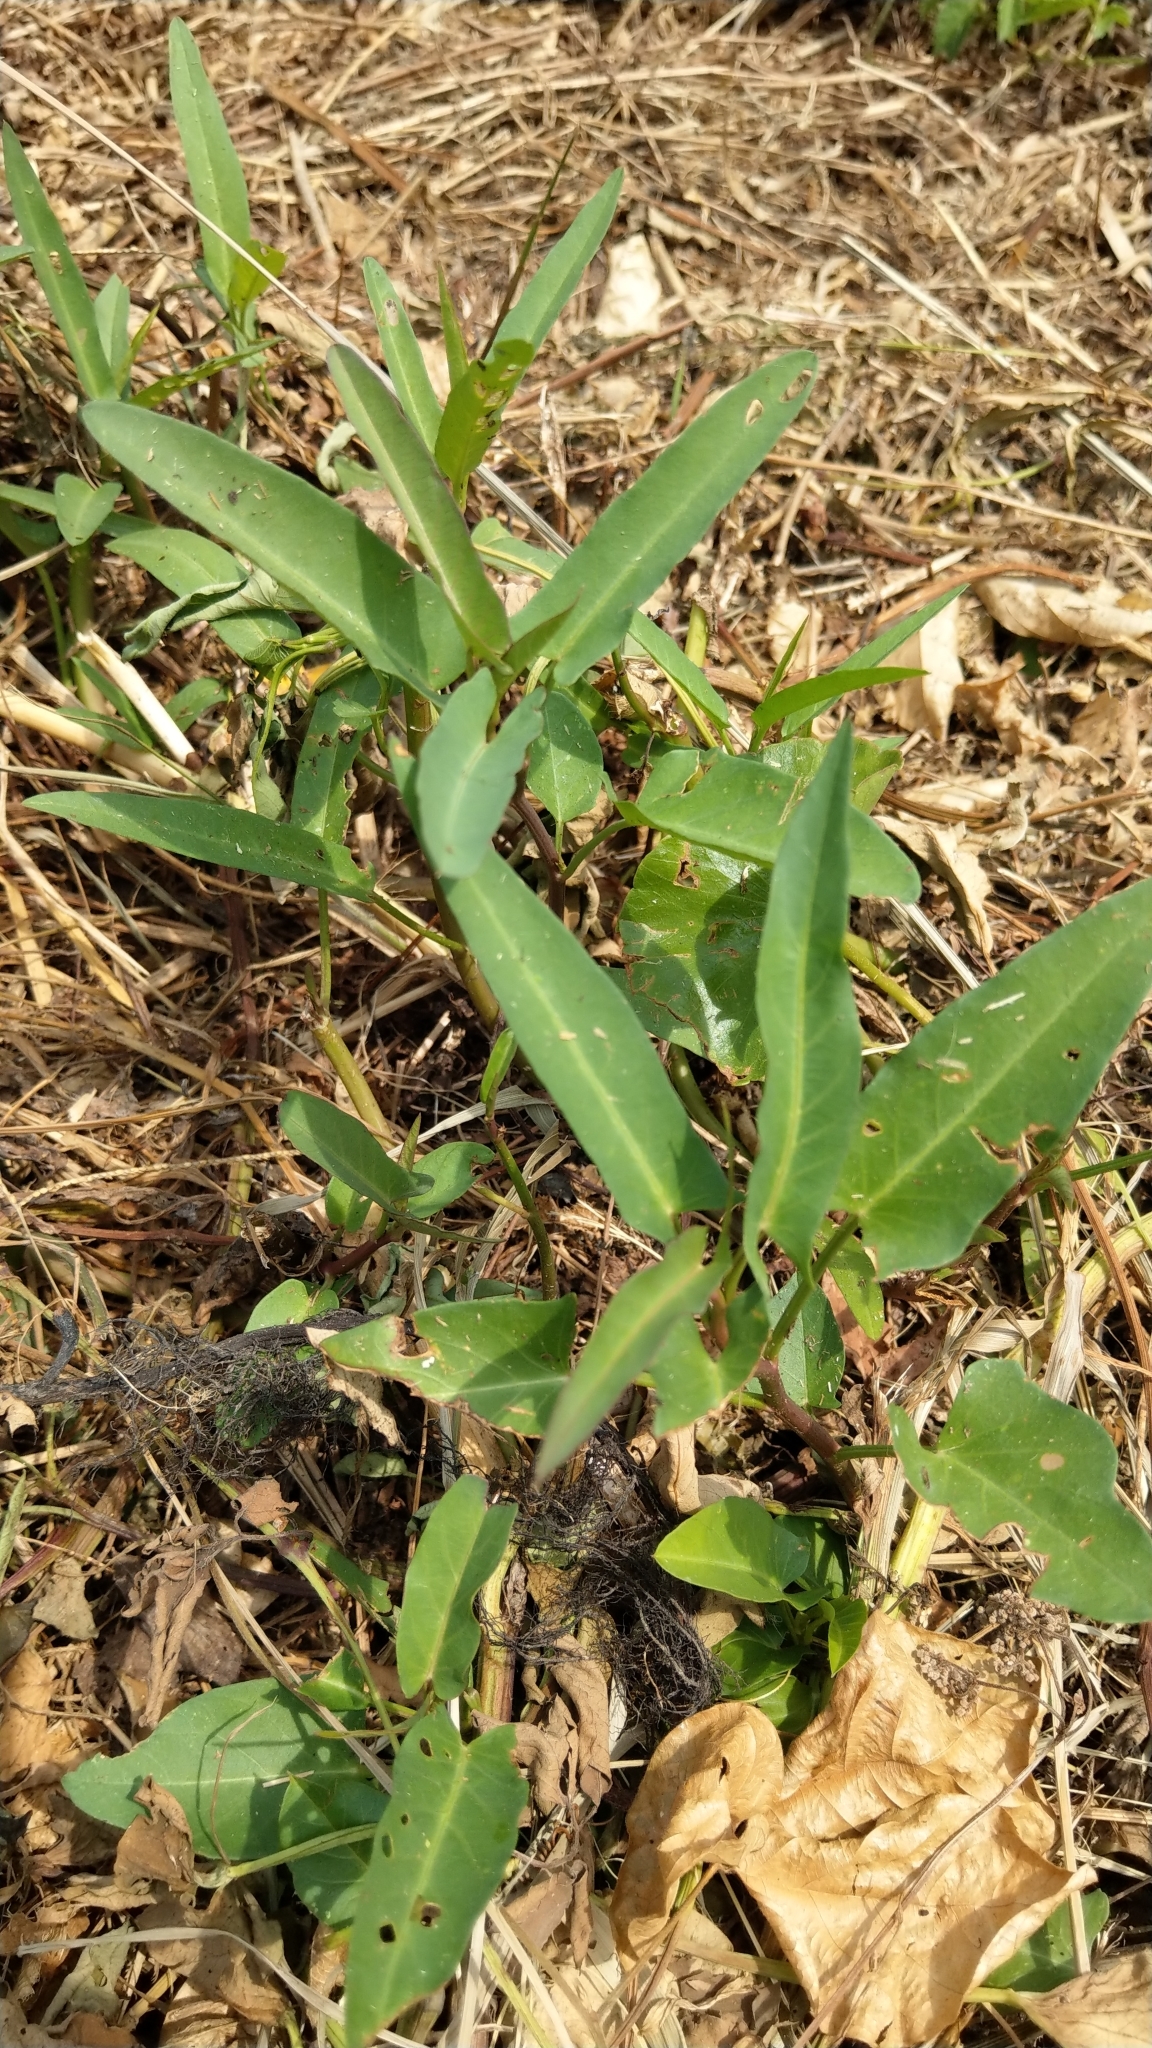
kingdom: Plantae
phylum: Tracheophyta
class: Magnoliopsida
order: Solanales
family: Convolvulaceae
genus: Ipomoea
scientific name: Ipomoea aquatica
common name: Swamp morning-glory
